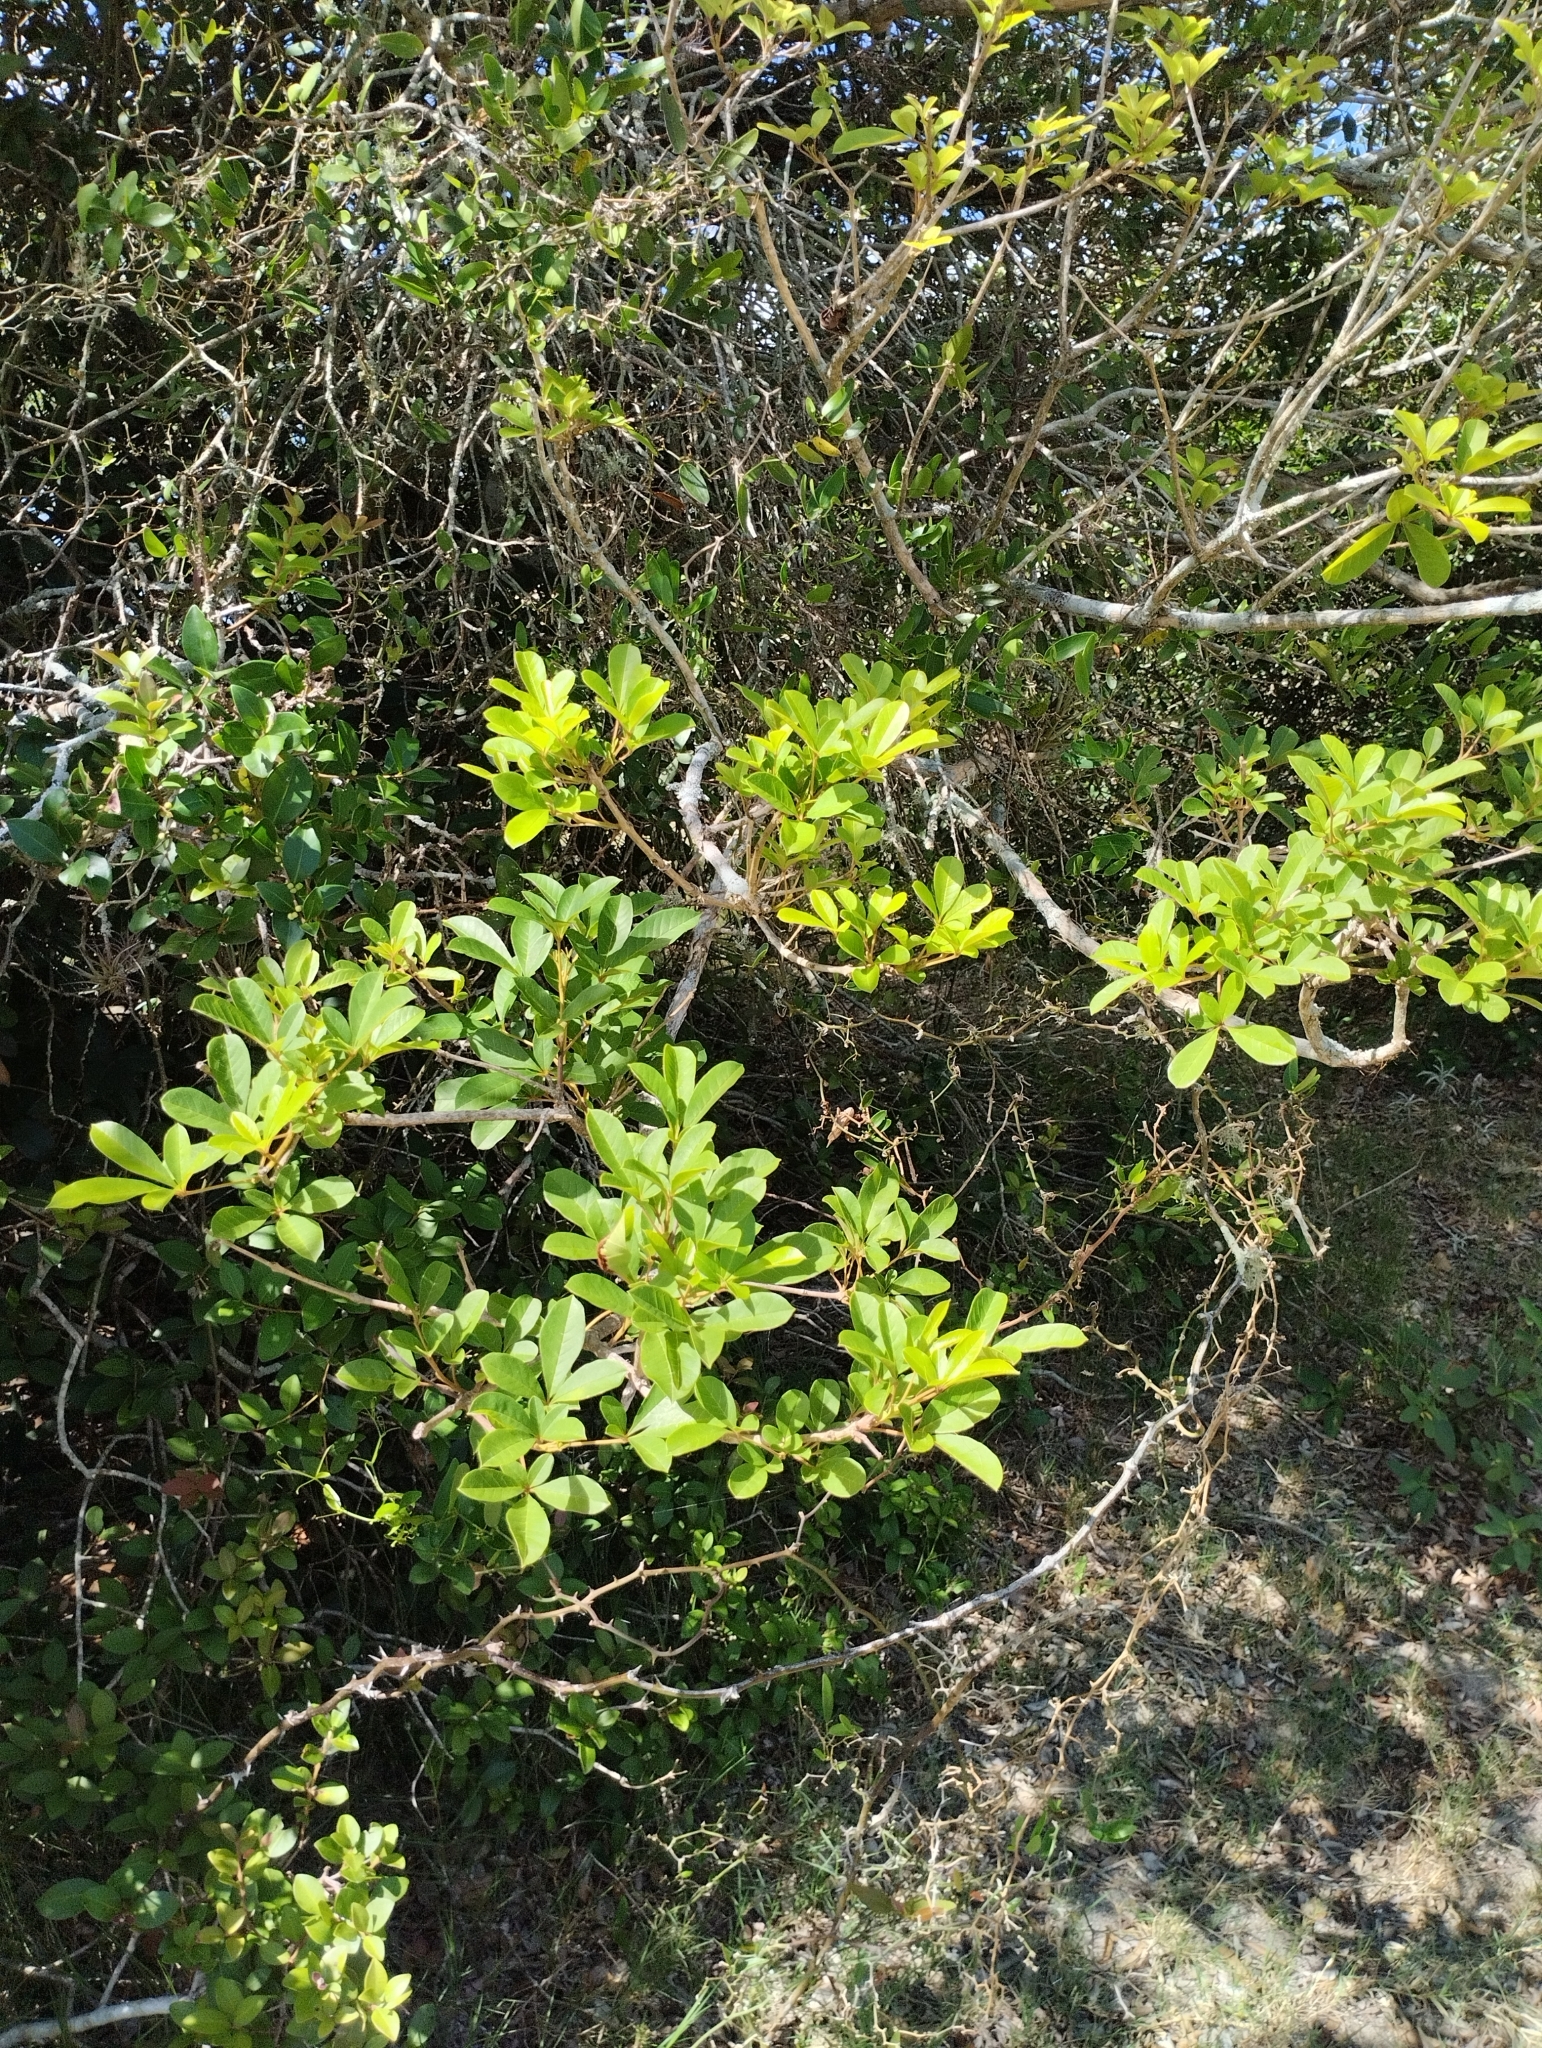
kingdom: Plantae
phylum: Tracheophyta
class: Magnoliopsida
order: Lamiales
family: Lamiaceae
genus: Vitex
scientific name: Vitex megapotamica
